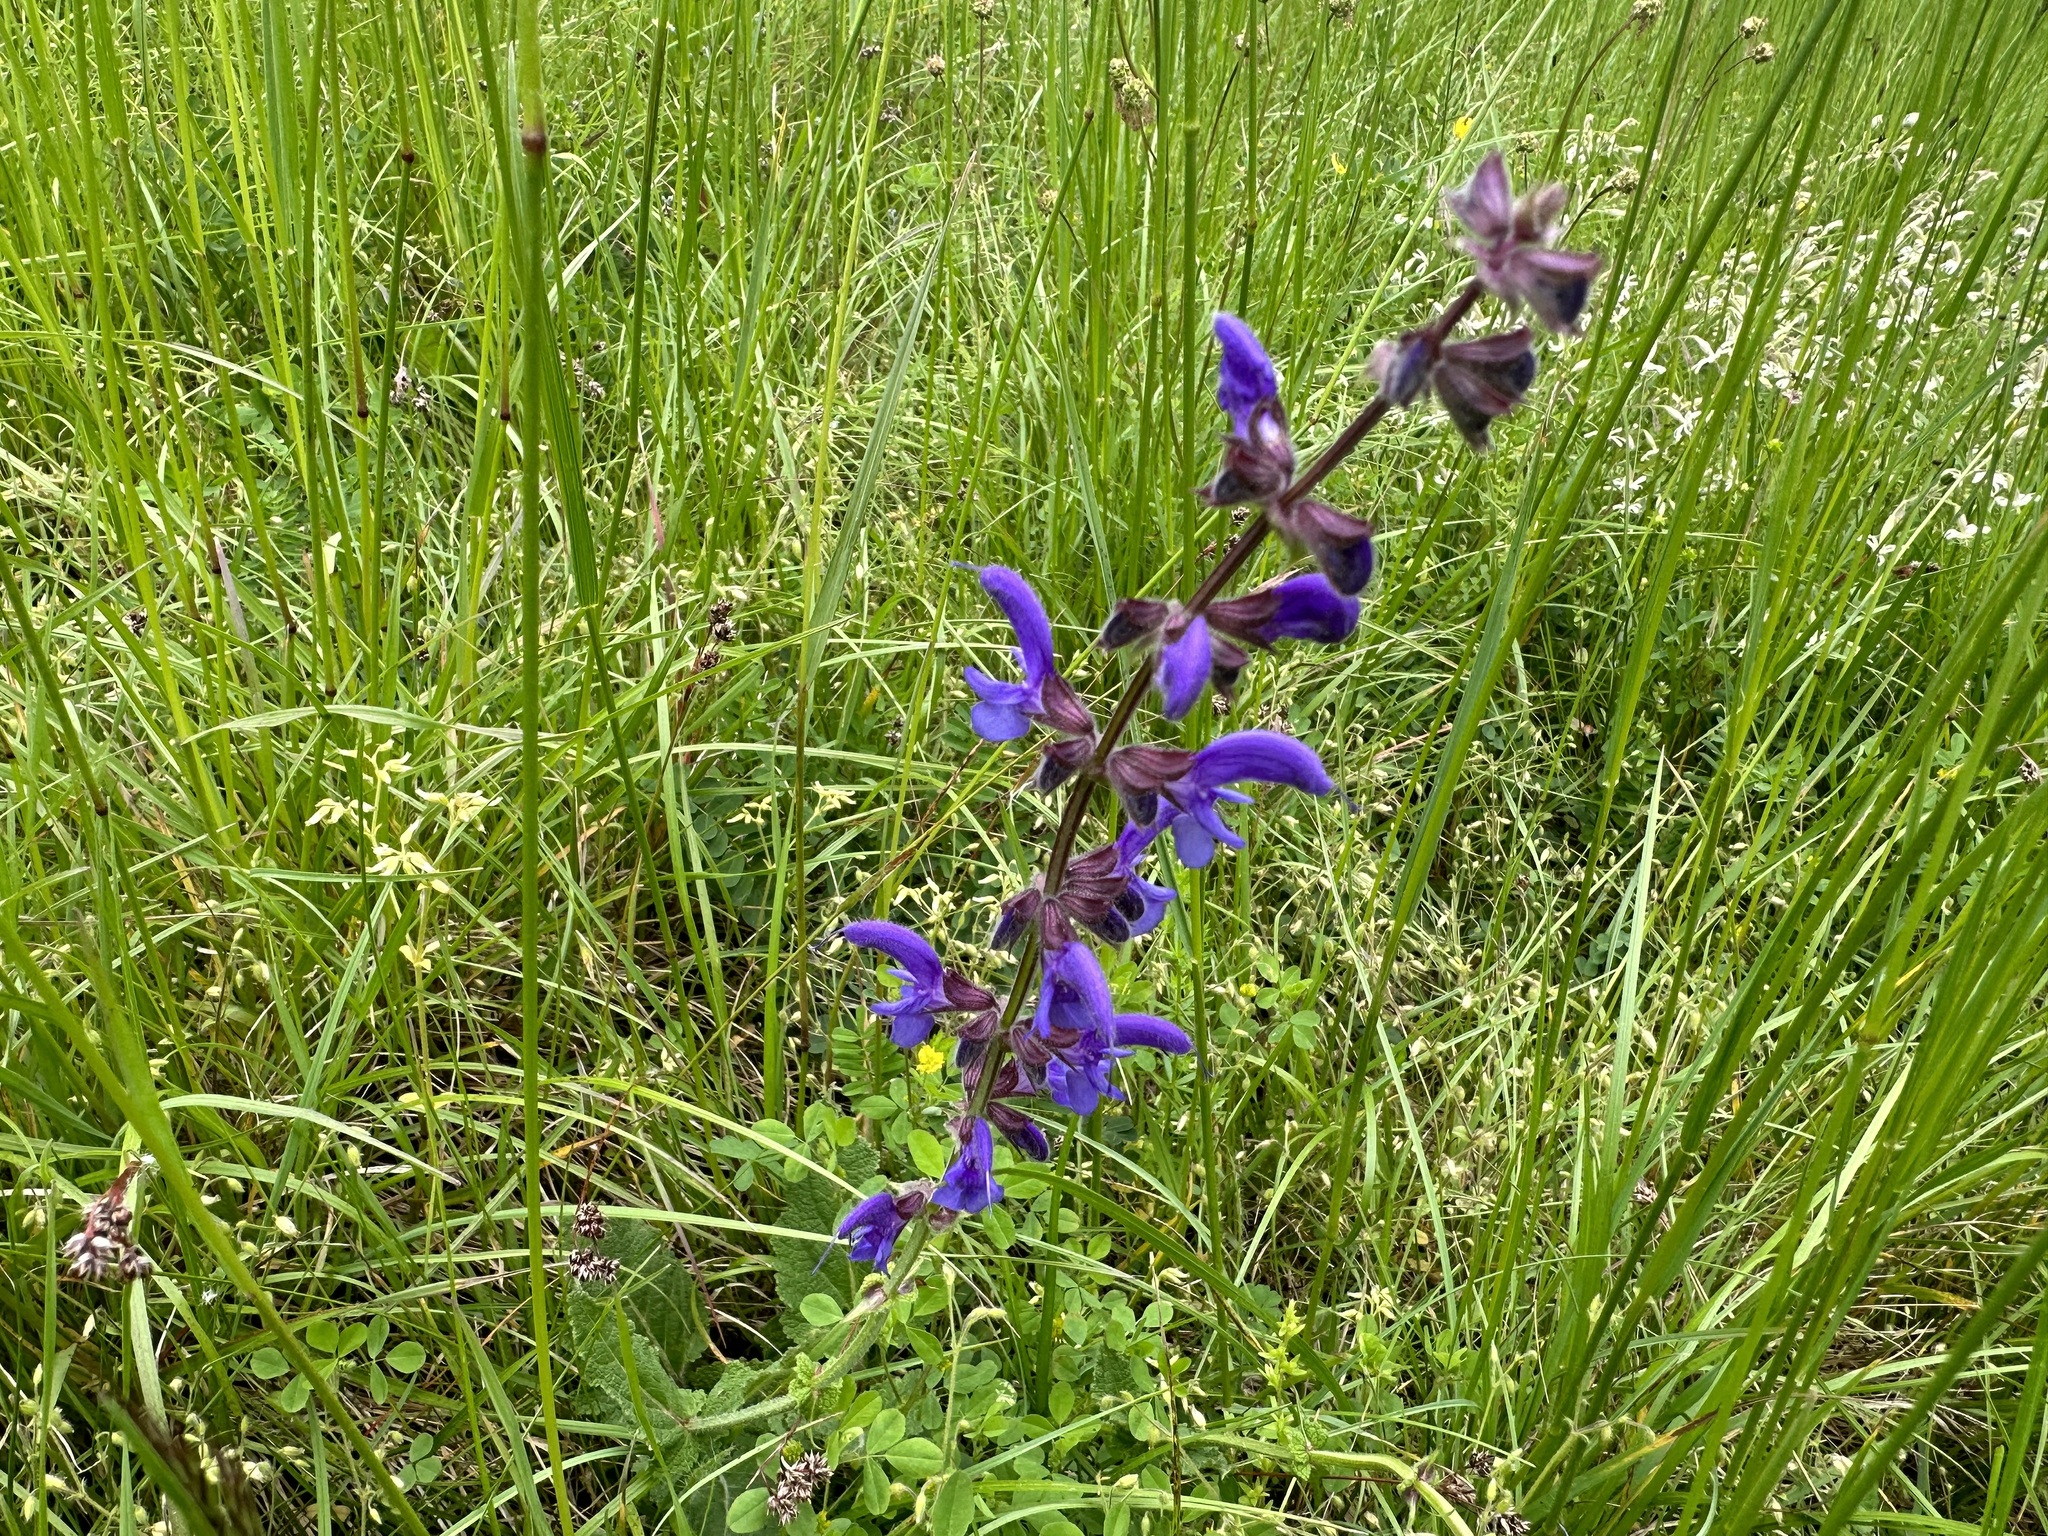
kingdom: Plantae
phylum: Tracheophyta
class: Magnoliopsida
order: Lamiales
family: Lamiaceae
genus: Salvia
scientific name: Salvia pratensis
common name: Meadow sage
